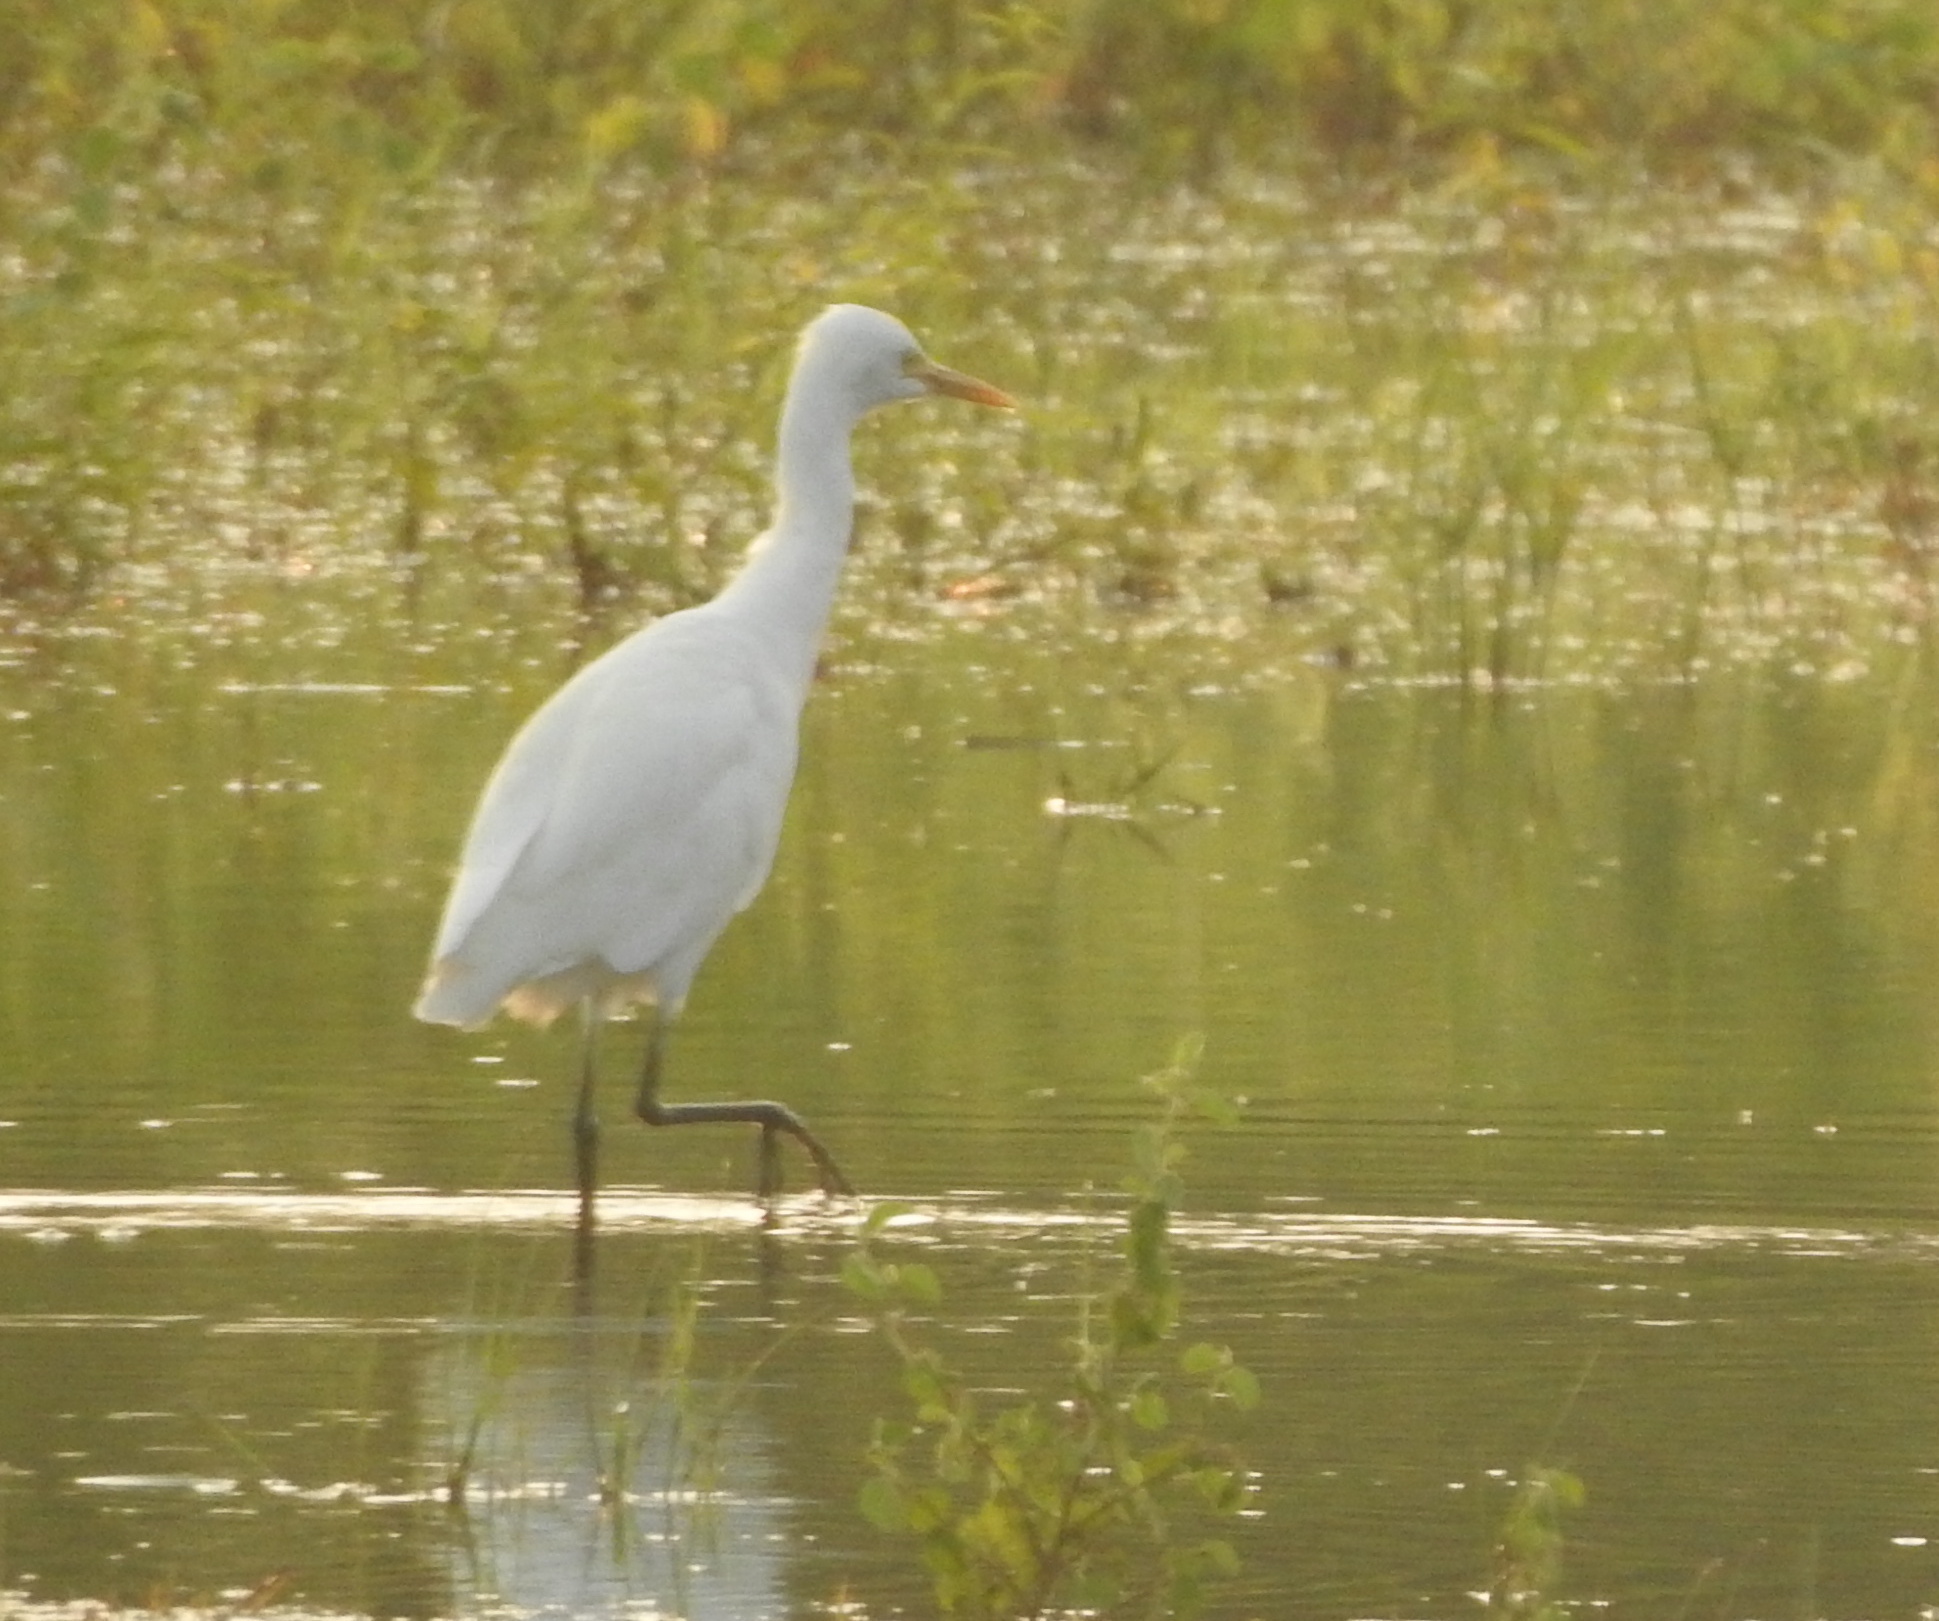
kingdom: Animalia
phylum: Chordata
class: Aves
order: Pelecaniformes
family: Ardeidae
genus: Bubulcus
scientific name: Bubulcus coromandus
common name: Eastern cattle egret
